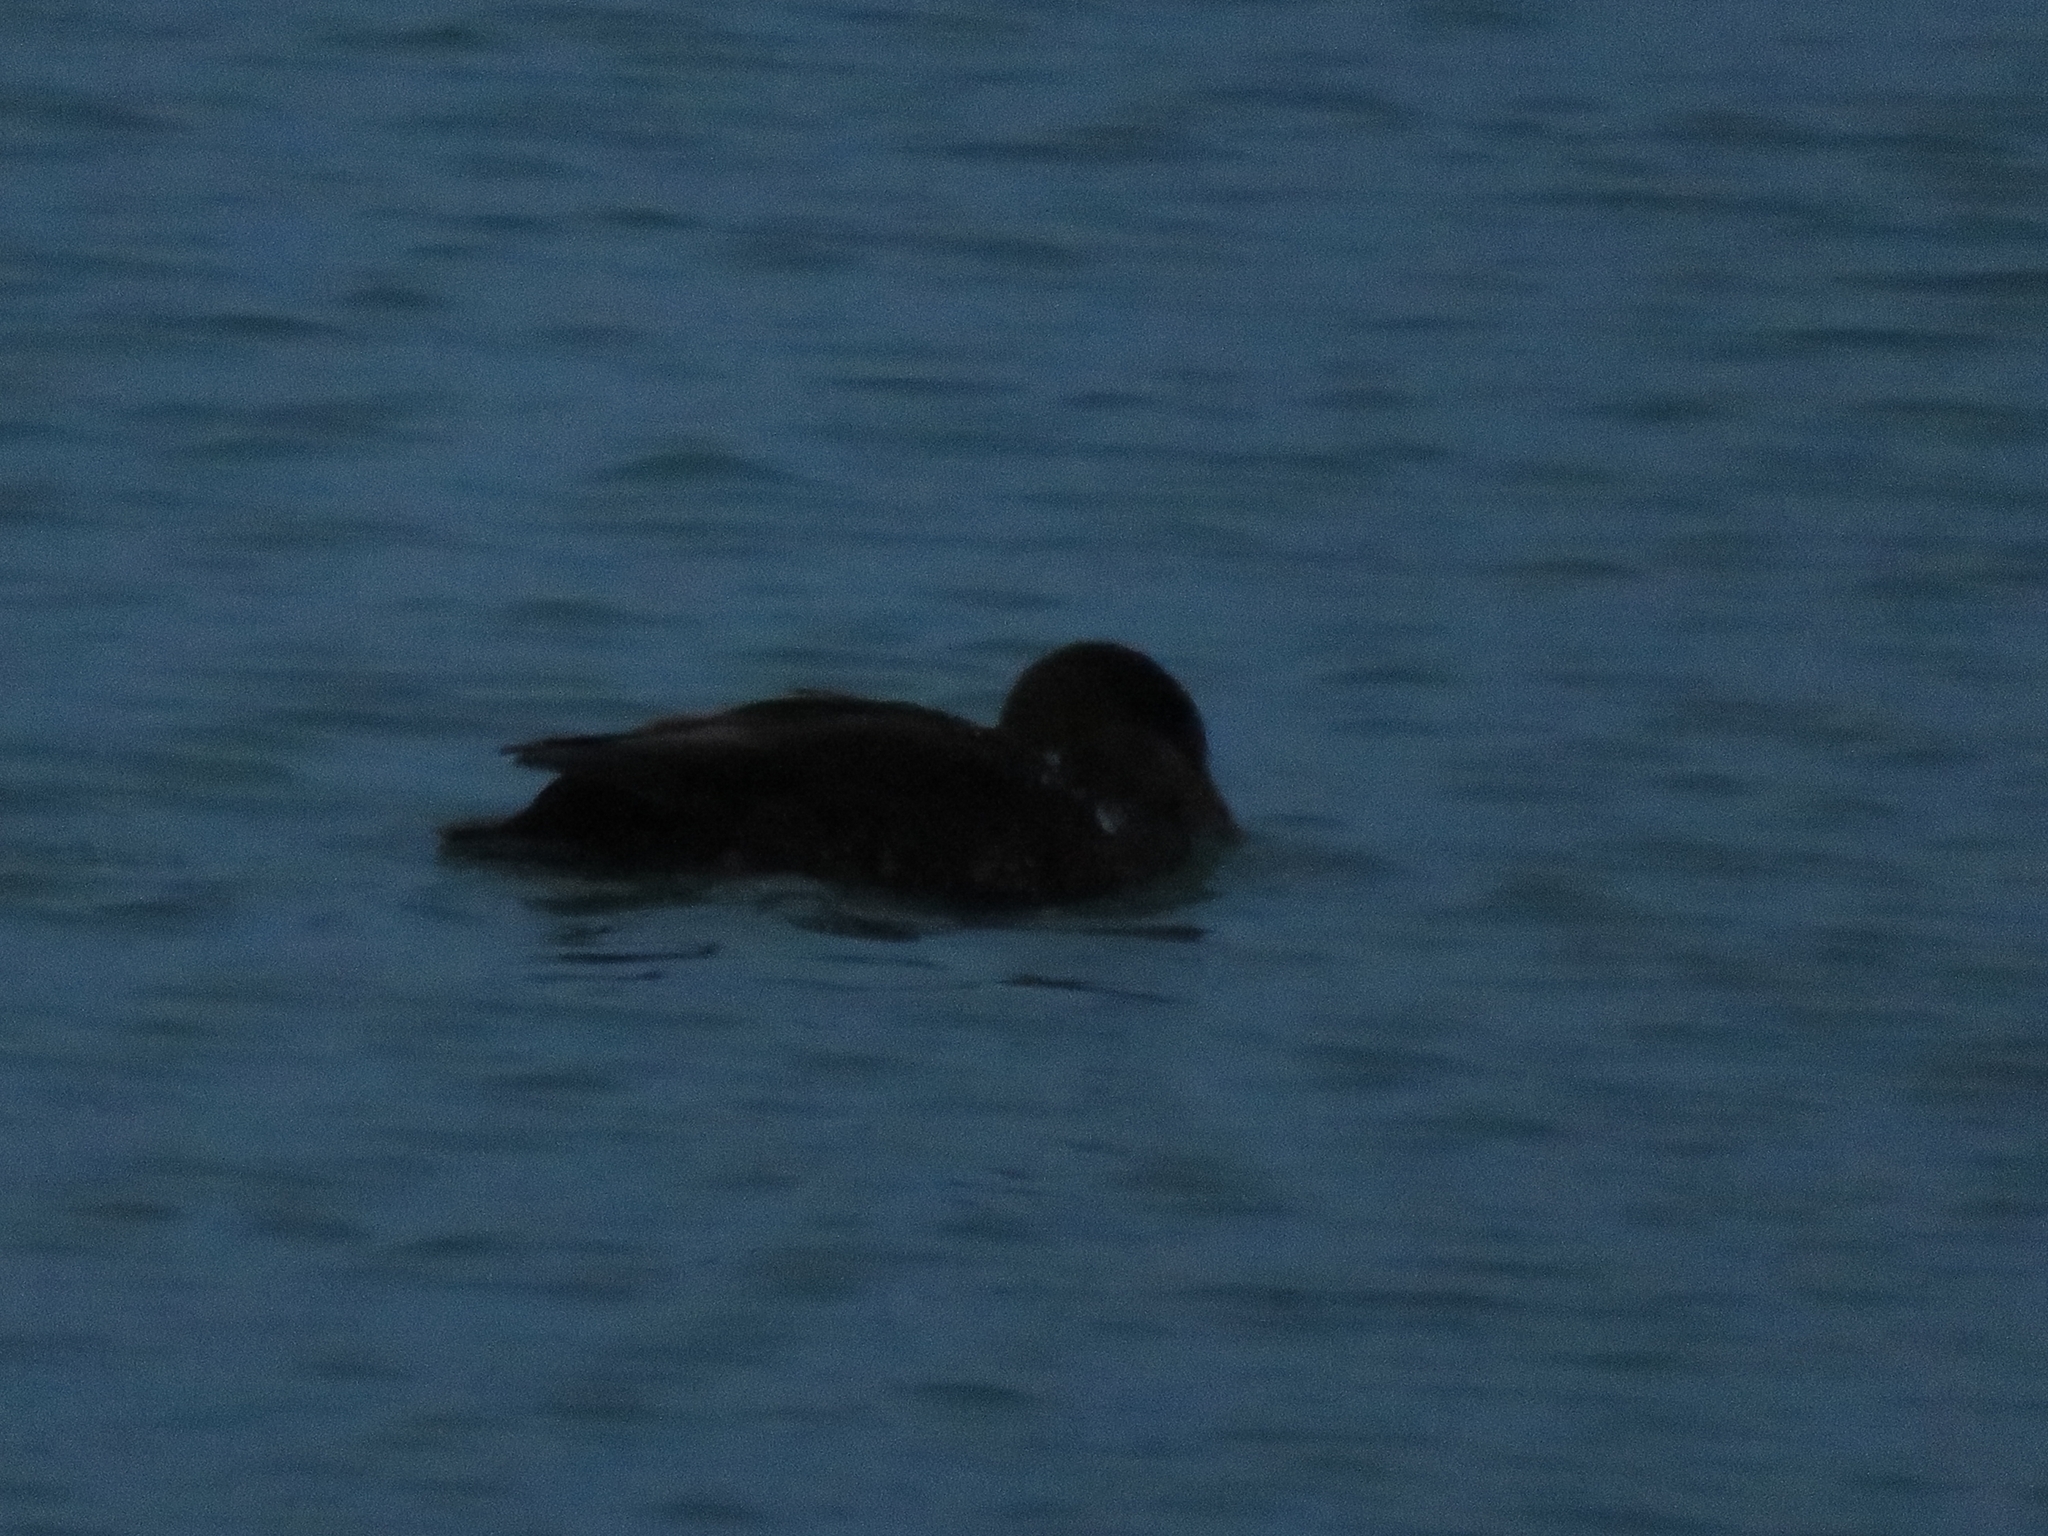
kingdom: Animalia
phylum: Chordata
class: Aves
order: Anseriformes
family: Anatidae
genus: Anas
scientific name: Anas rubripes
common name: American black duck
